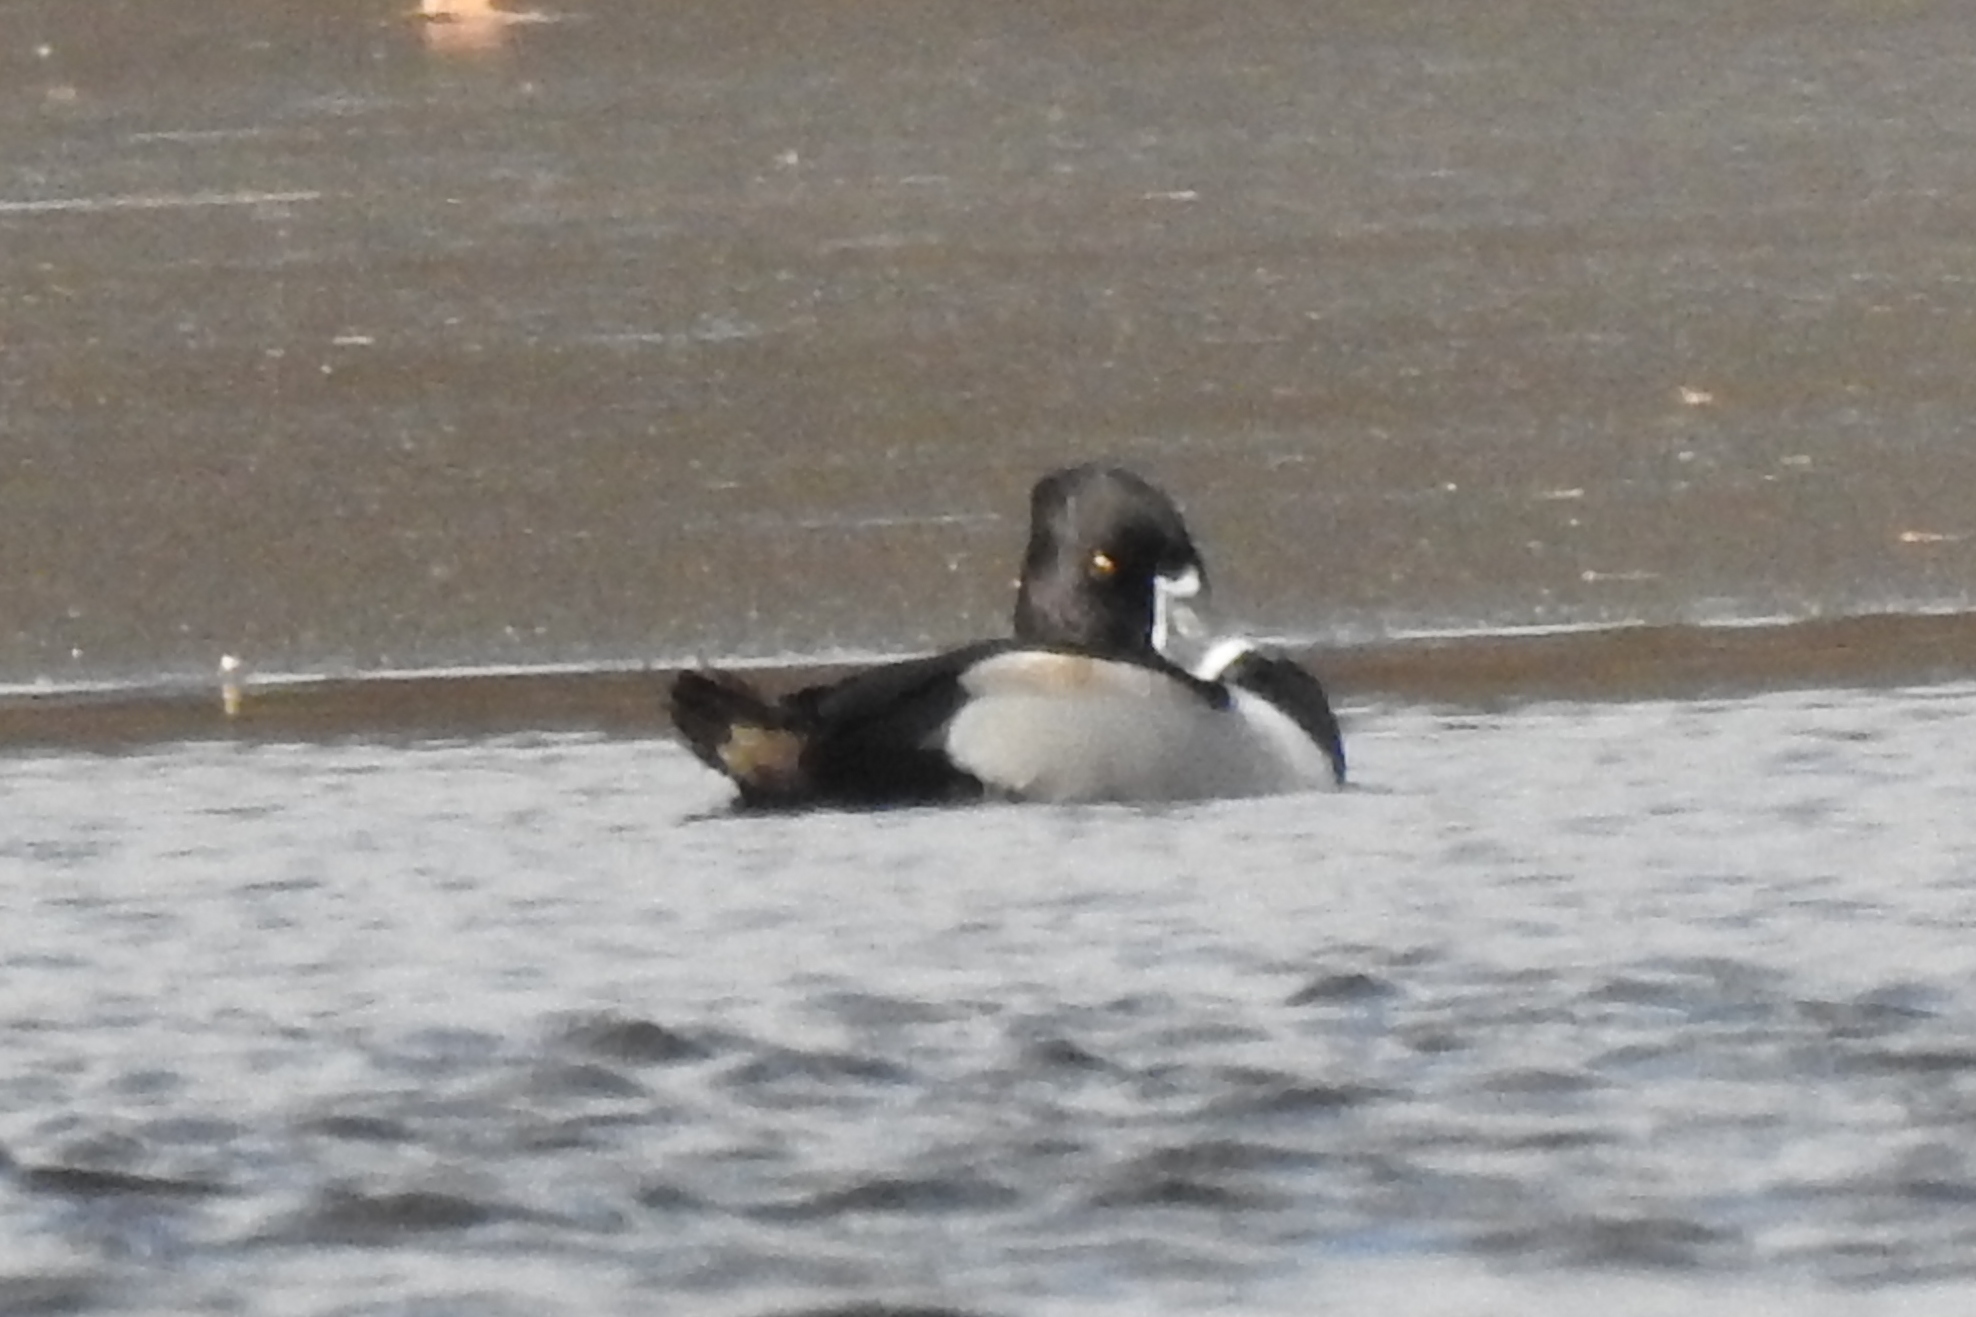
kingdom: Animalia
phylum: Chordata
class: Aves
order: Anseriformes
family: Anatidae
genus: Aythya
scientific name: Aythya collaris
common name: Ring-necked duck
